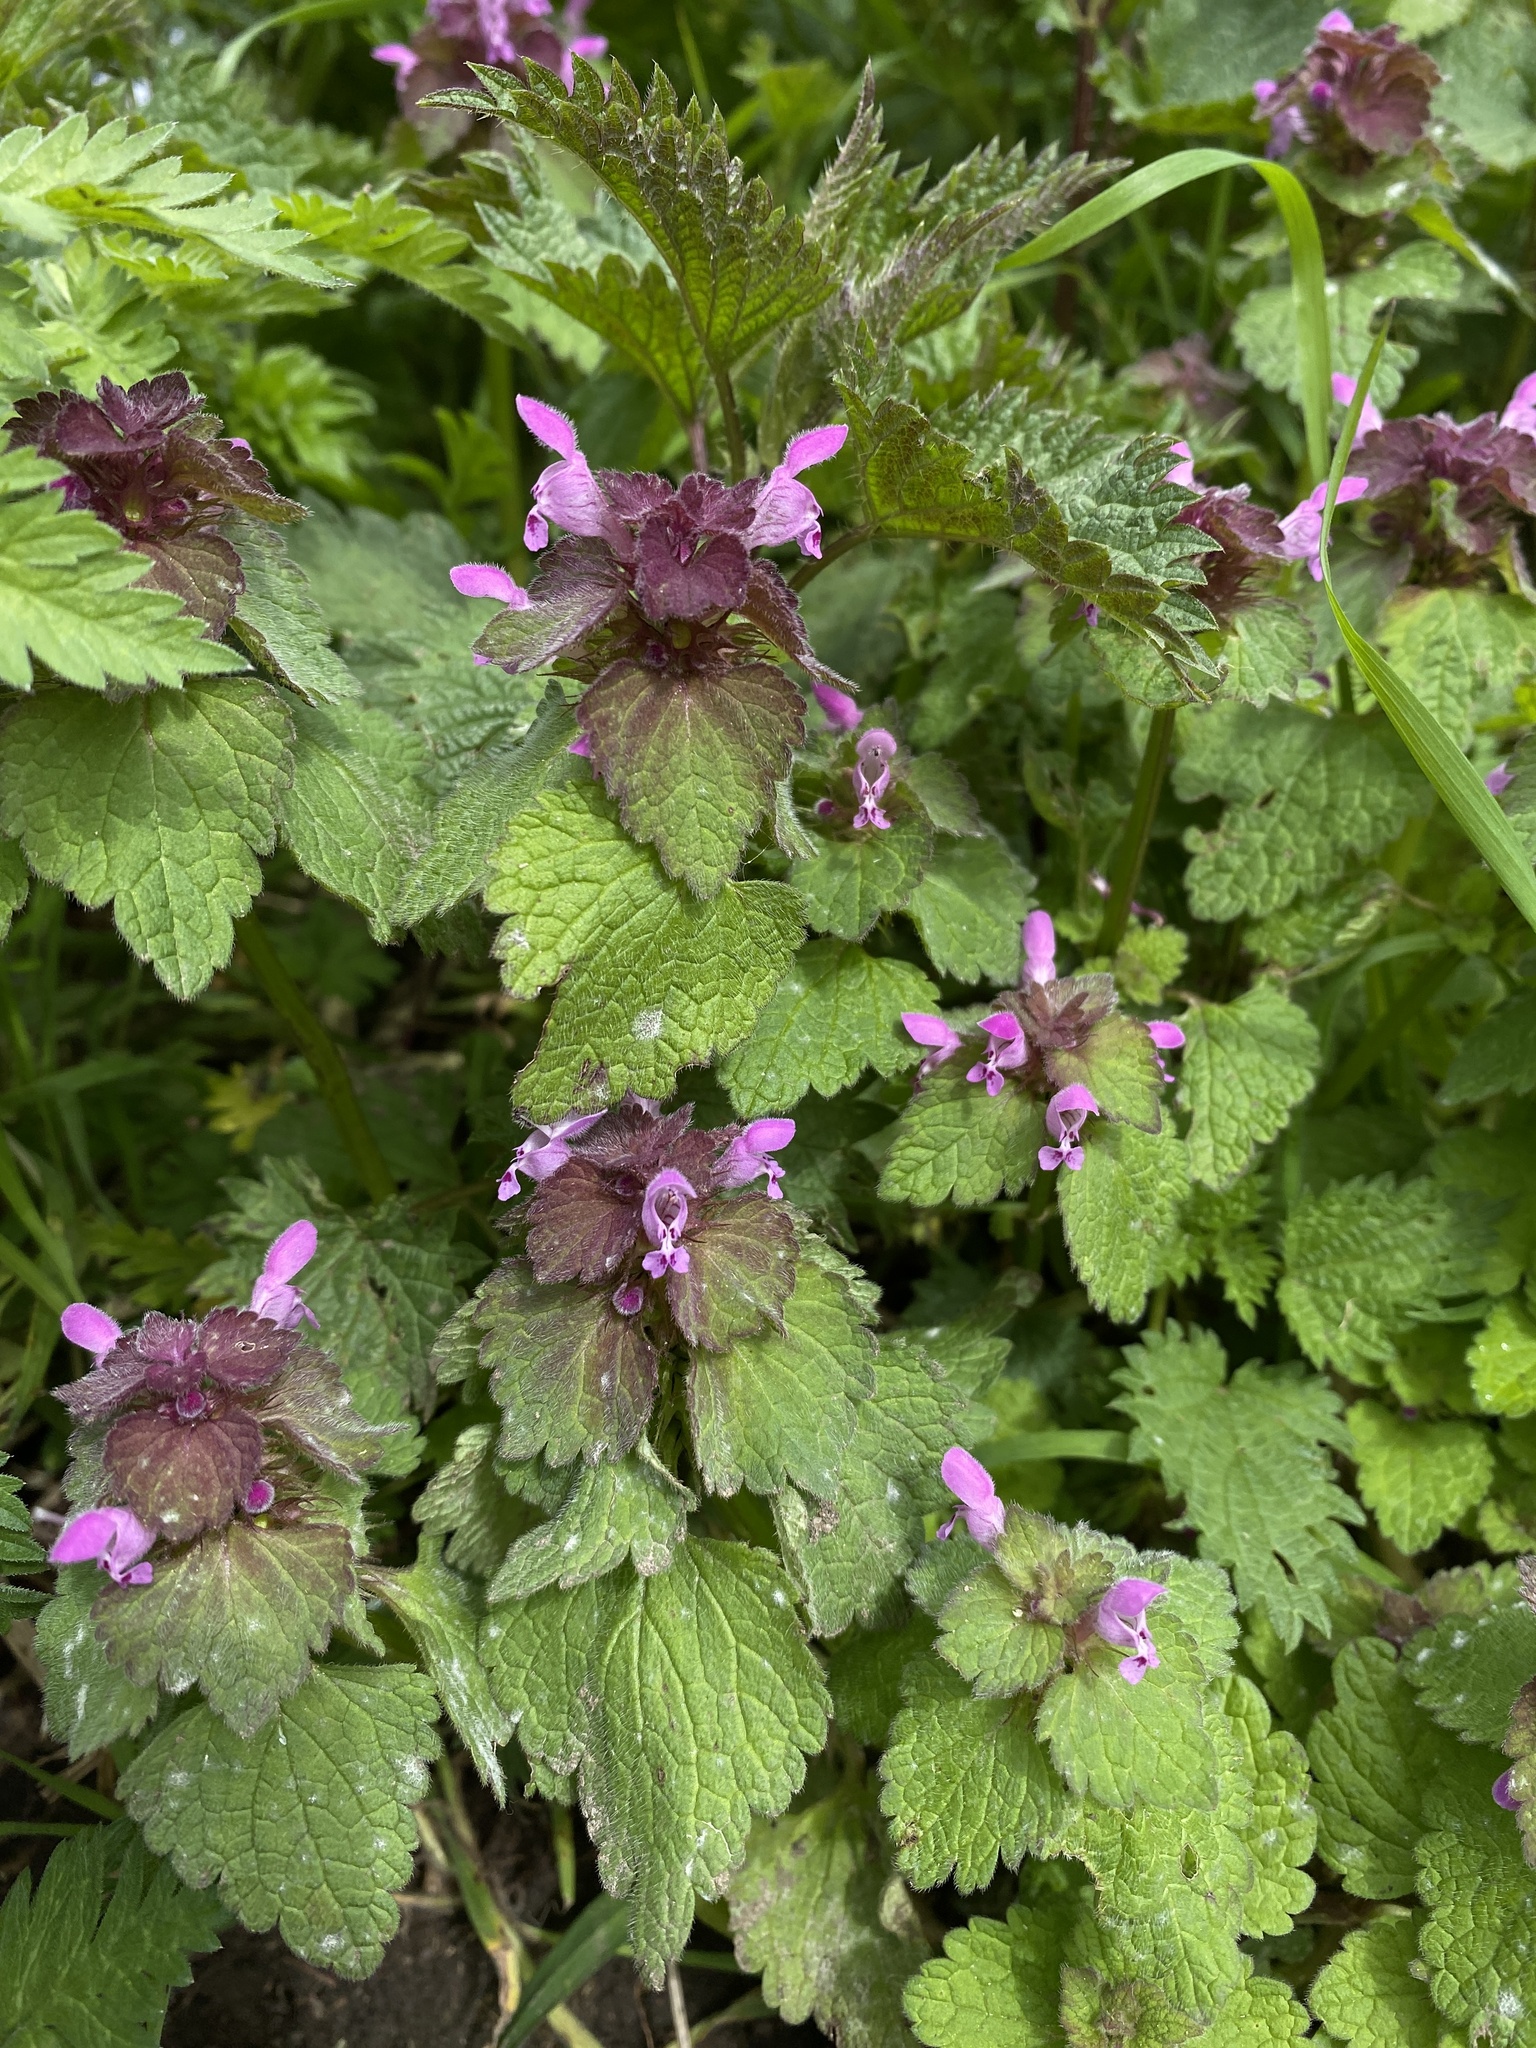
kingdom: Plantae
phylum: Tracheophyta
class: Magnoliopsida
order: Lamiales
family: Lamiaceae
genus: Lamium
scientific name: Lamium purpureum
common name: Red dead-nettle
